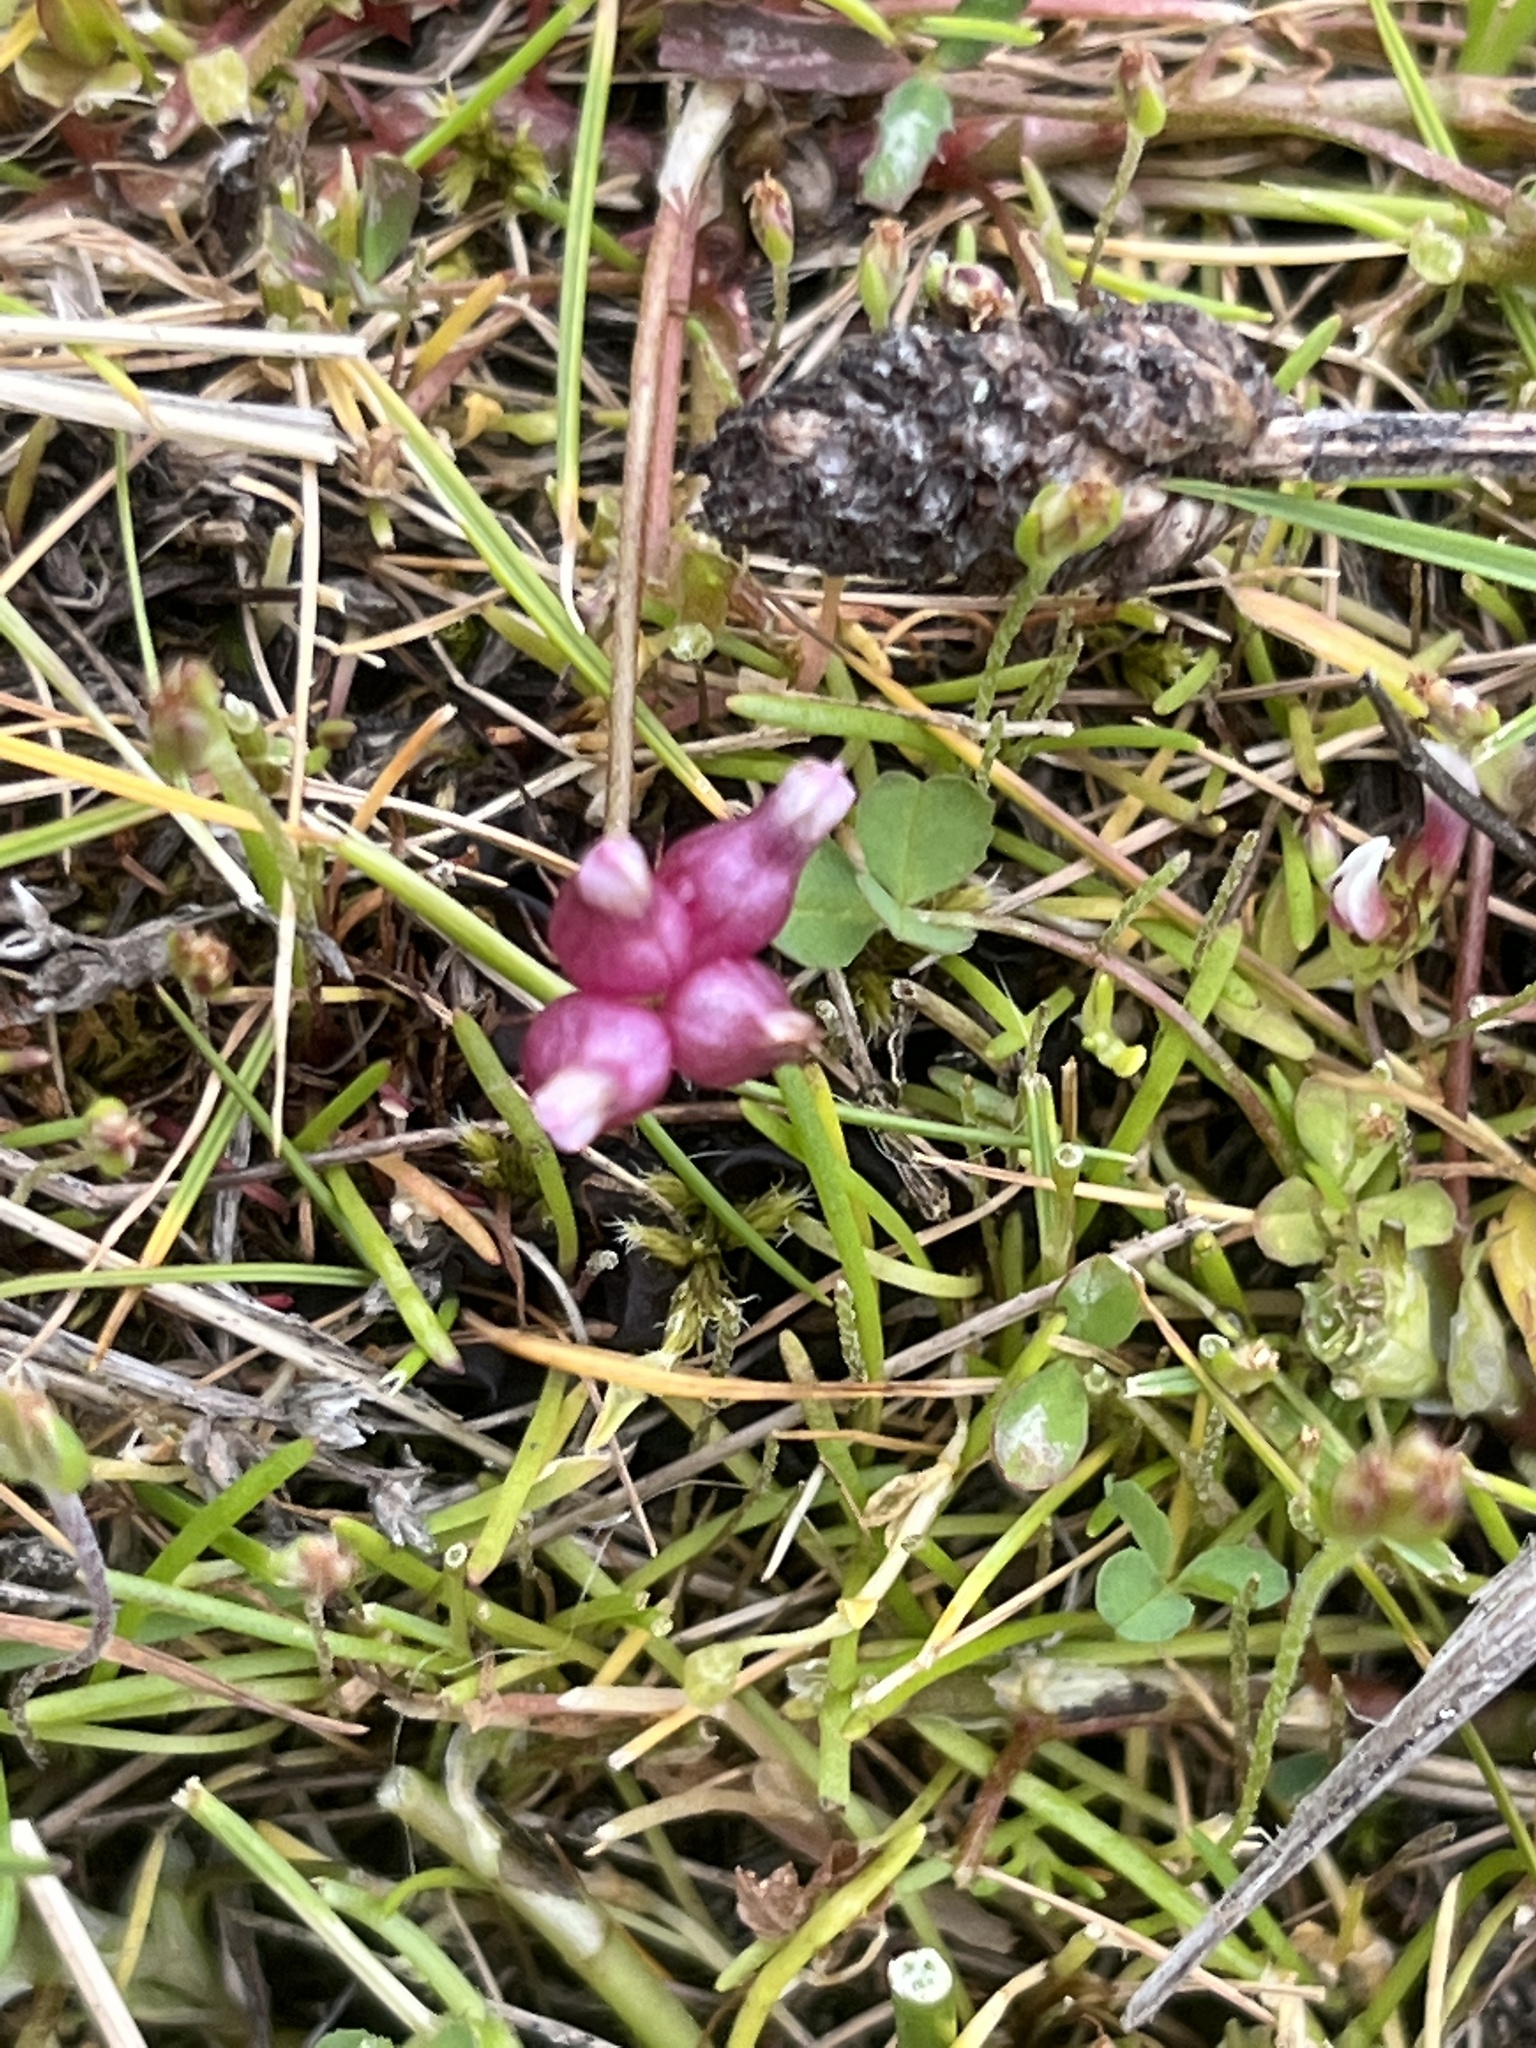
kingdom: Plantae
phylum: Tracheophyta
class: Magnoliopsida
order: Fabales
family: Fabaceae
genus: Trifolium
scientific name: Trifolium depauperatum
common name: Poverty clover
